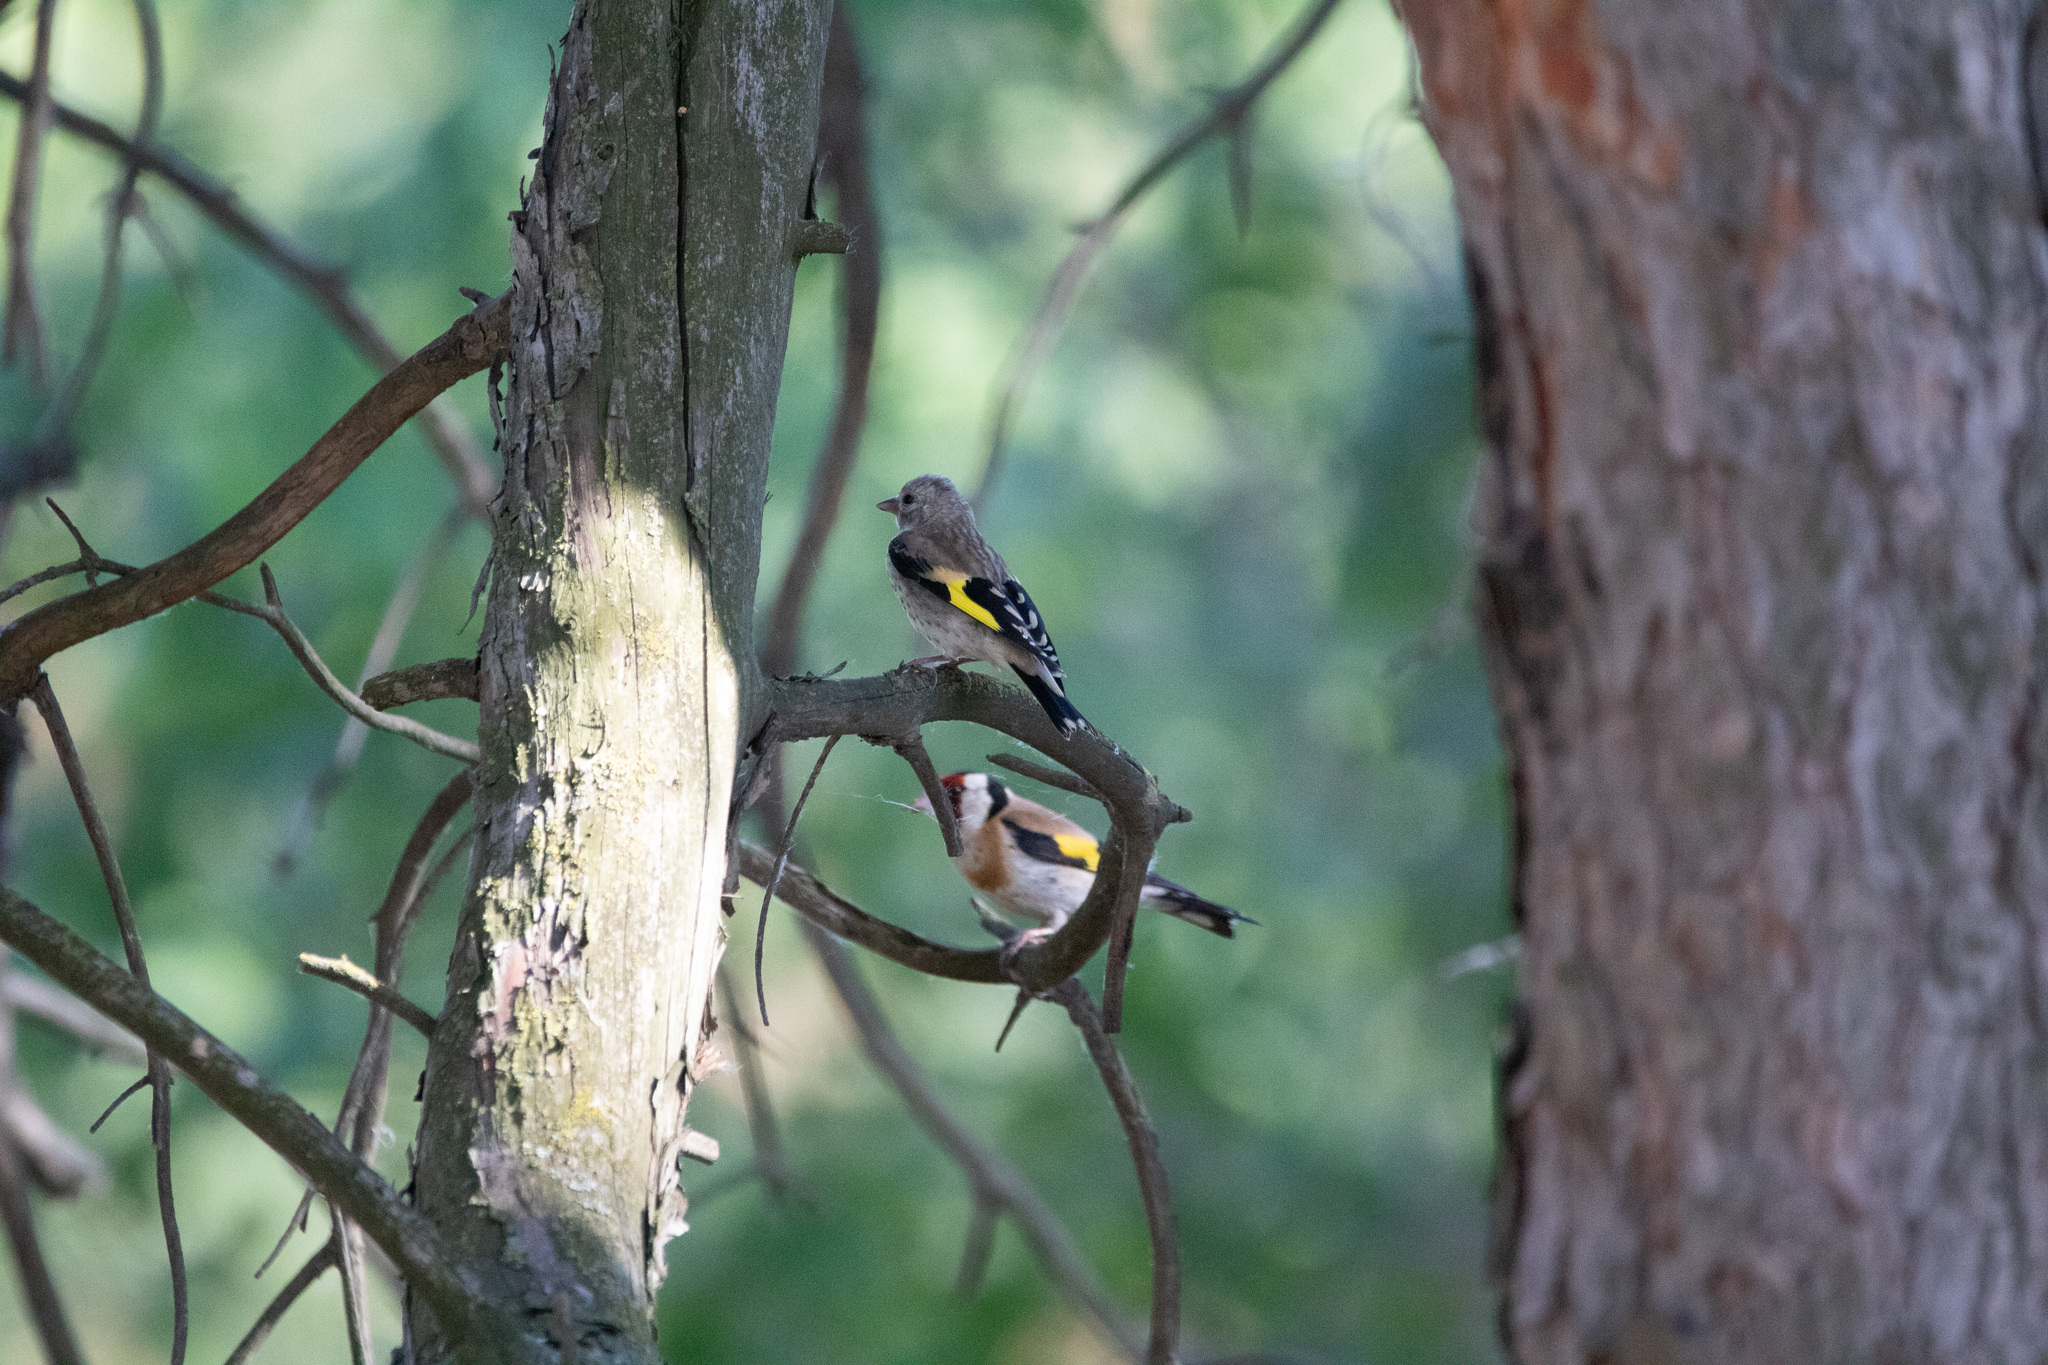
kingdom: Animalia
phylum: Chordata
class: Aves
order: Passeriformes
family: Fringillidae
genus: Carduelis
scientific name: Carduelis carduelis
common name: European goldfinch
